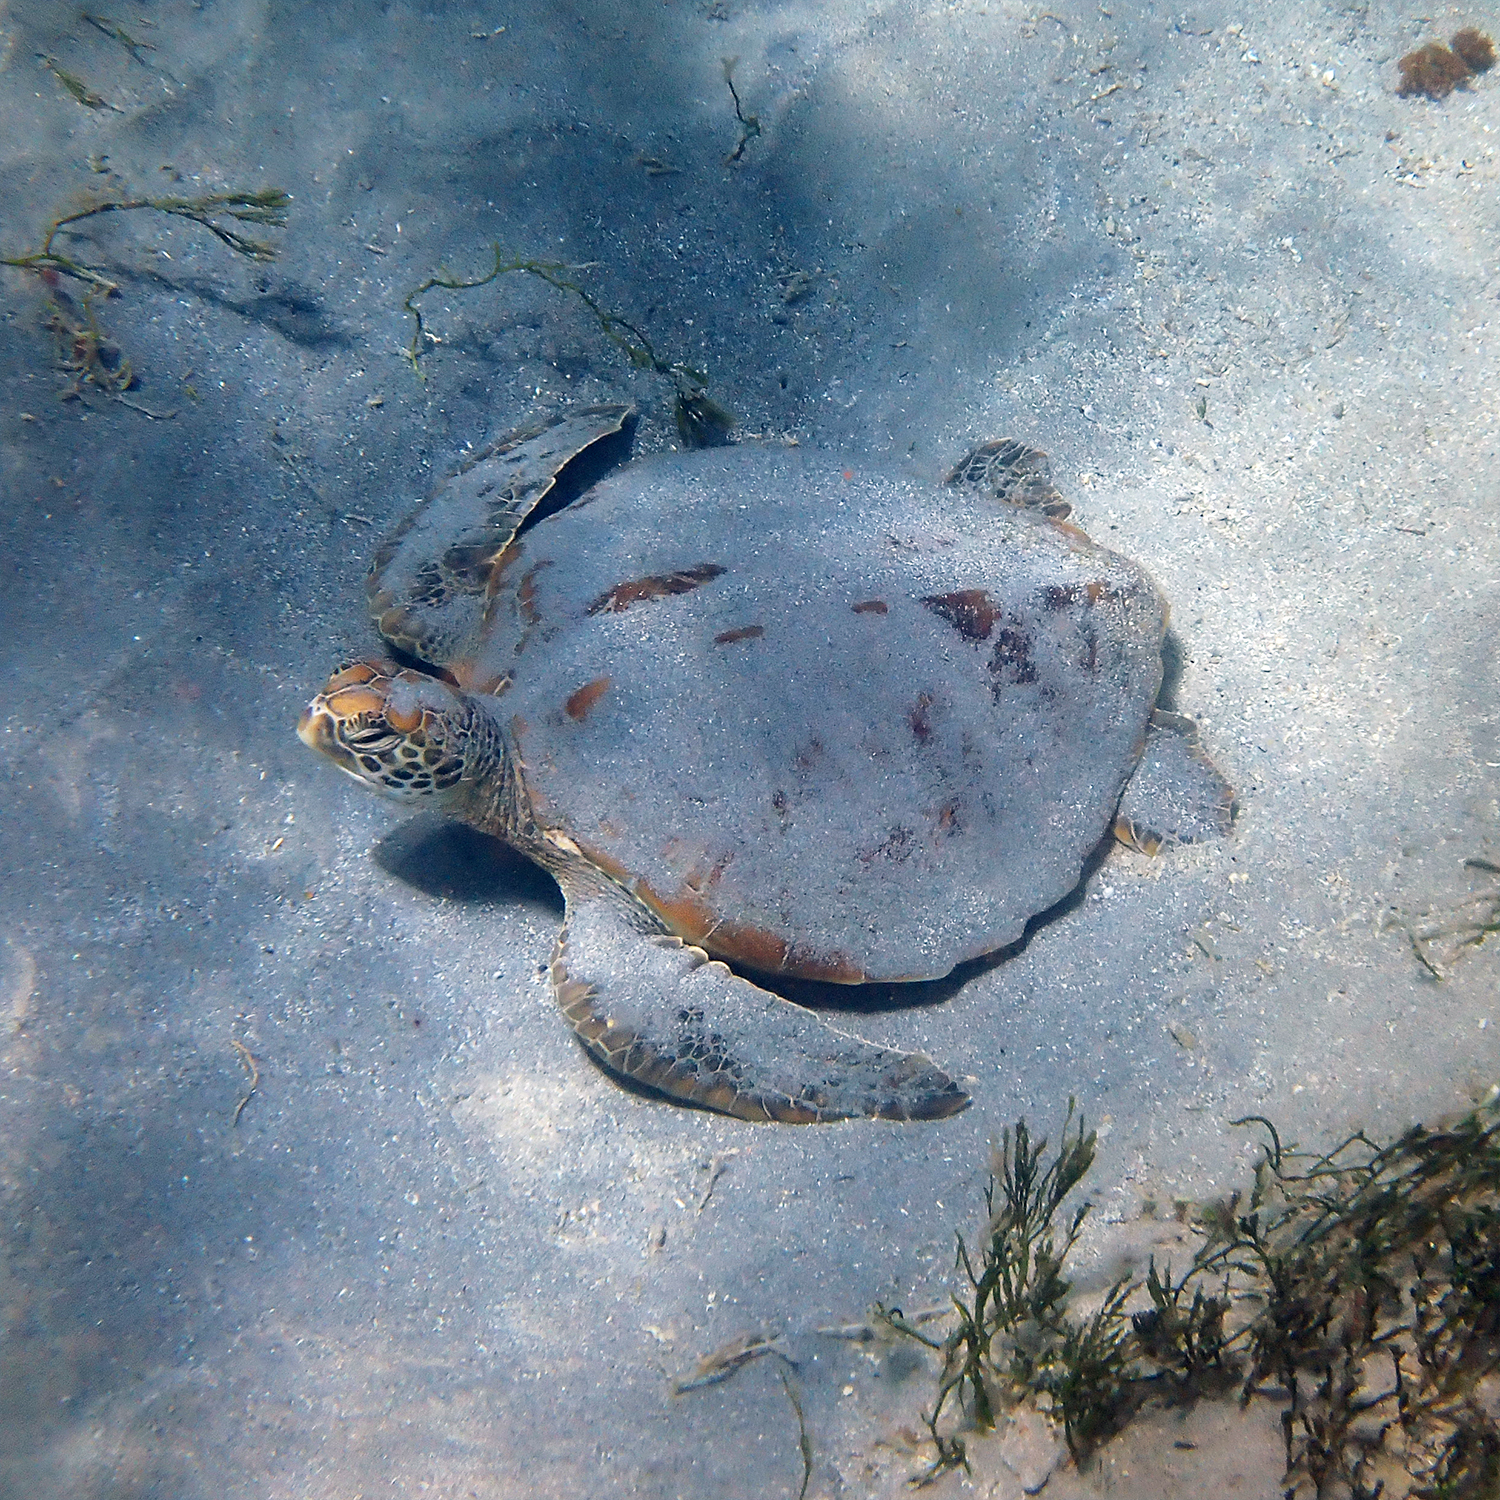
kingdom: Animalia
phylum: Chordata
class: Testudines
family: Cheloniidae
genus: Chelonia
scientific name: Chelonia mydas
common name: Green turtle
